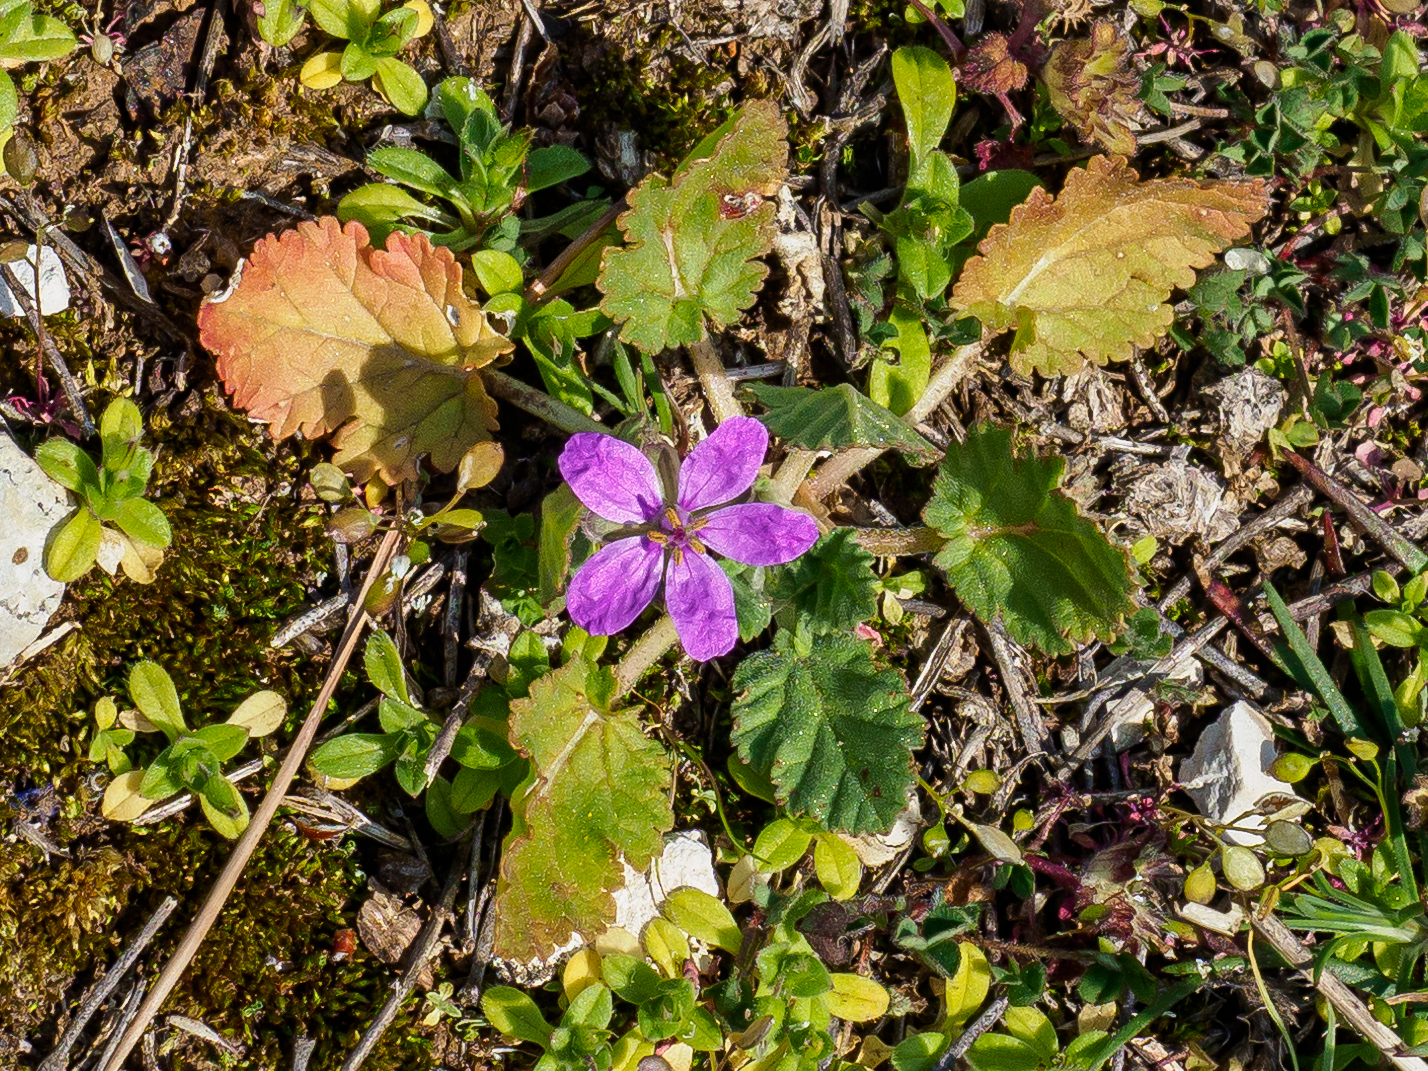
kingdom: Plantae
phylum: Tracheophyta
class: Magnoliopsida
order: Geraniales
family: Geraniaceae
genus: Erodium
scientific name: Erodium malacoides
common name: Soft stork's-bill
